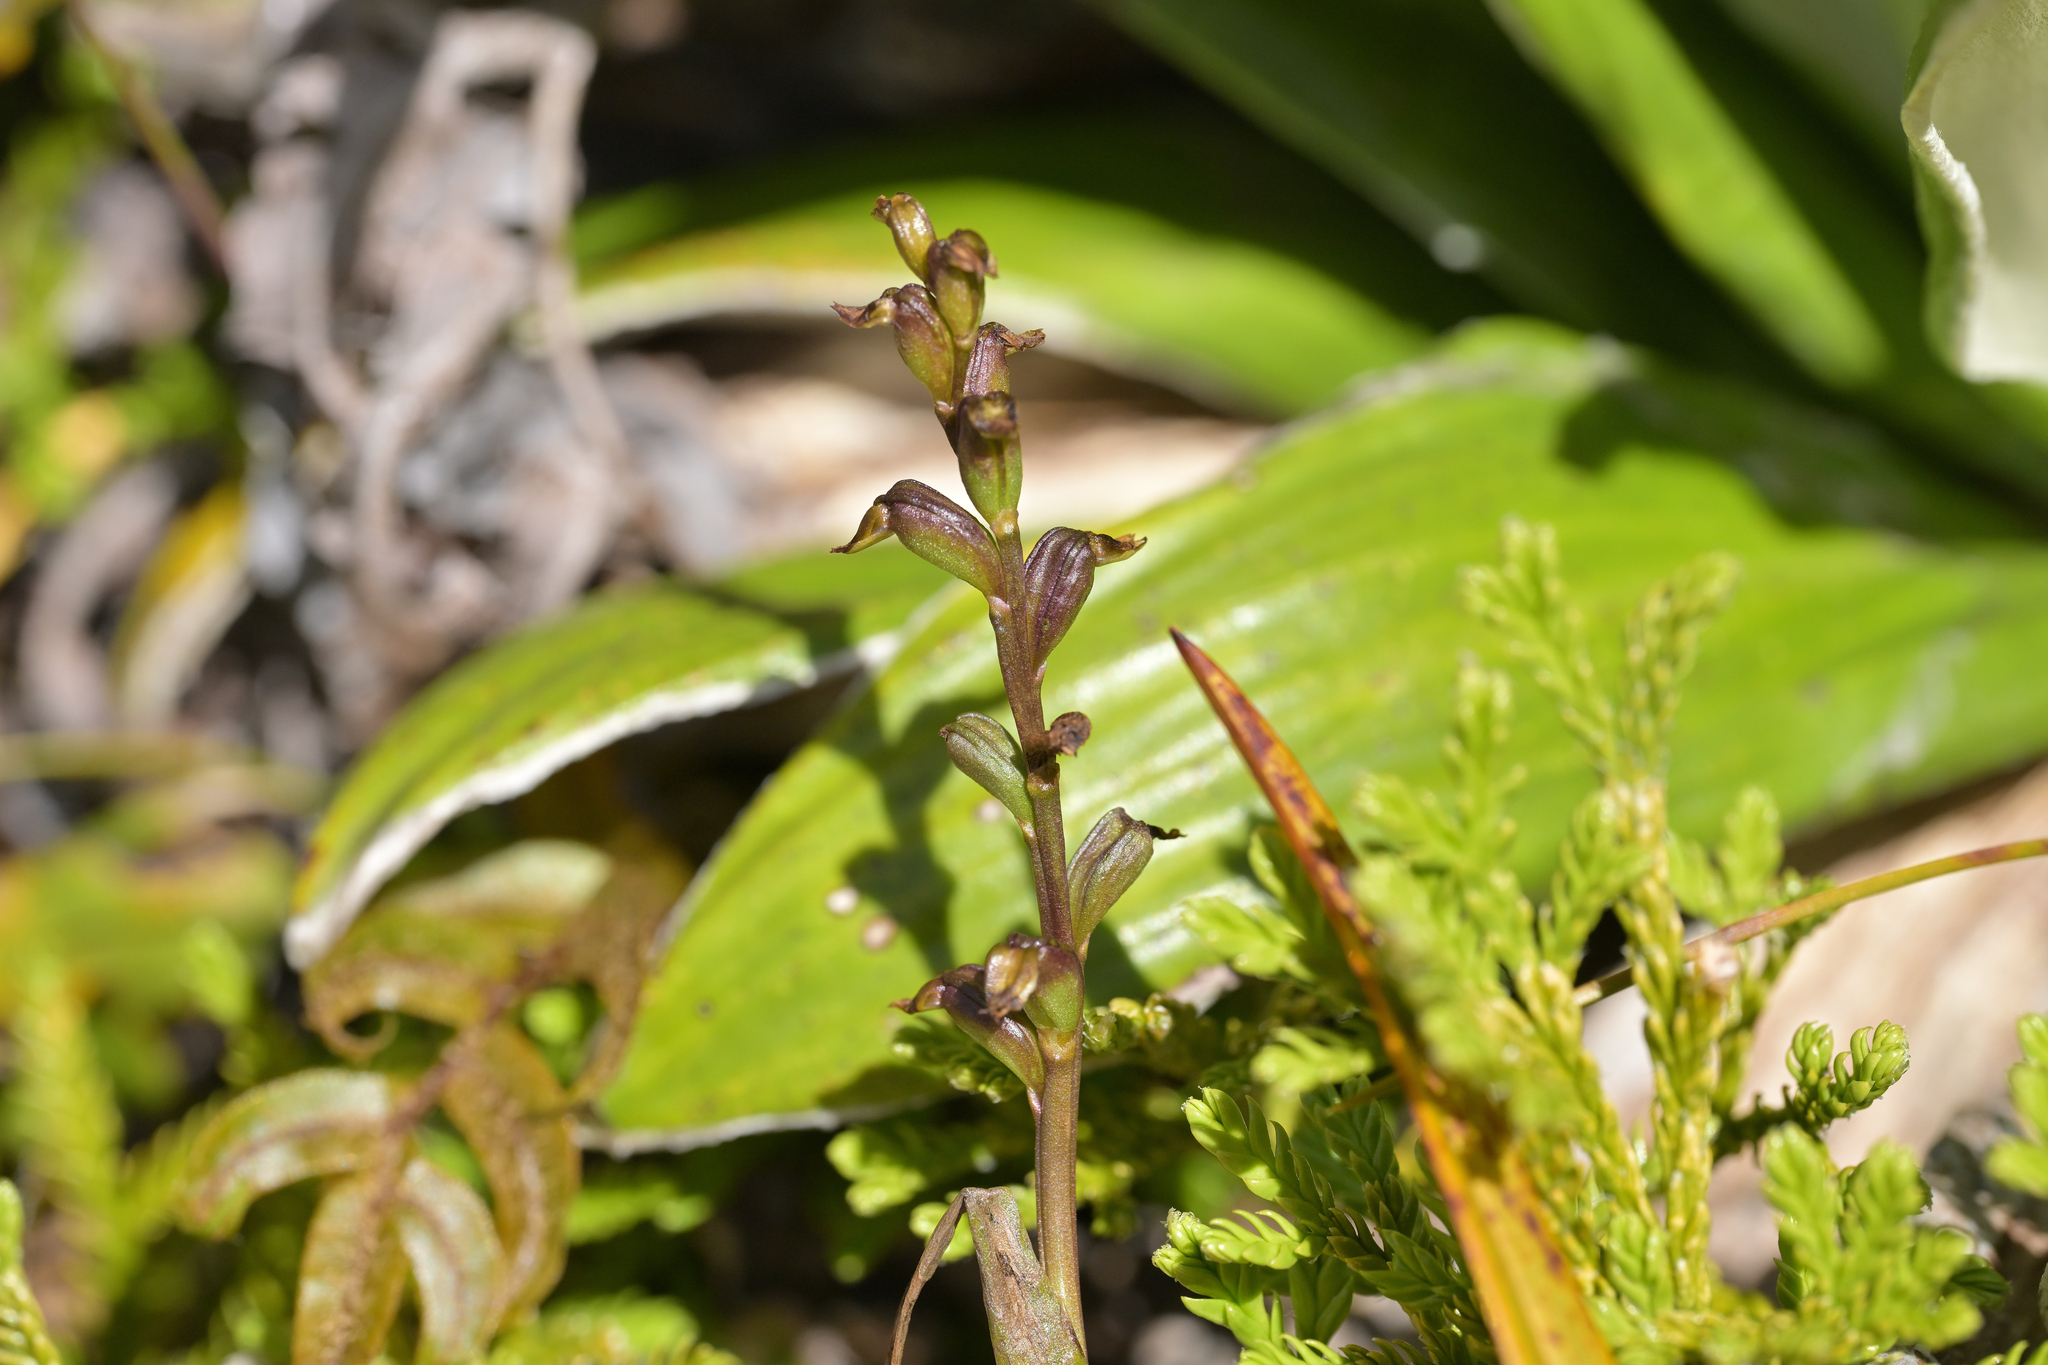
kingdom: Plantae
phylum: Tracheophyta
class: Liliopsida
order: Asparagales
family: Orchidaceae
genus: Prasophyllum
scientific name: Prasophyllum colensoi
